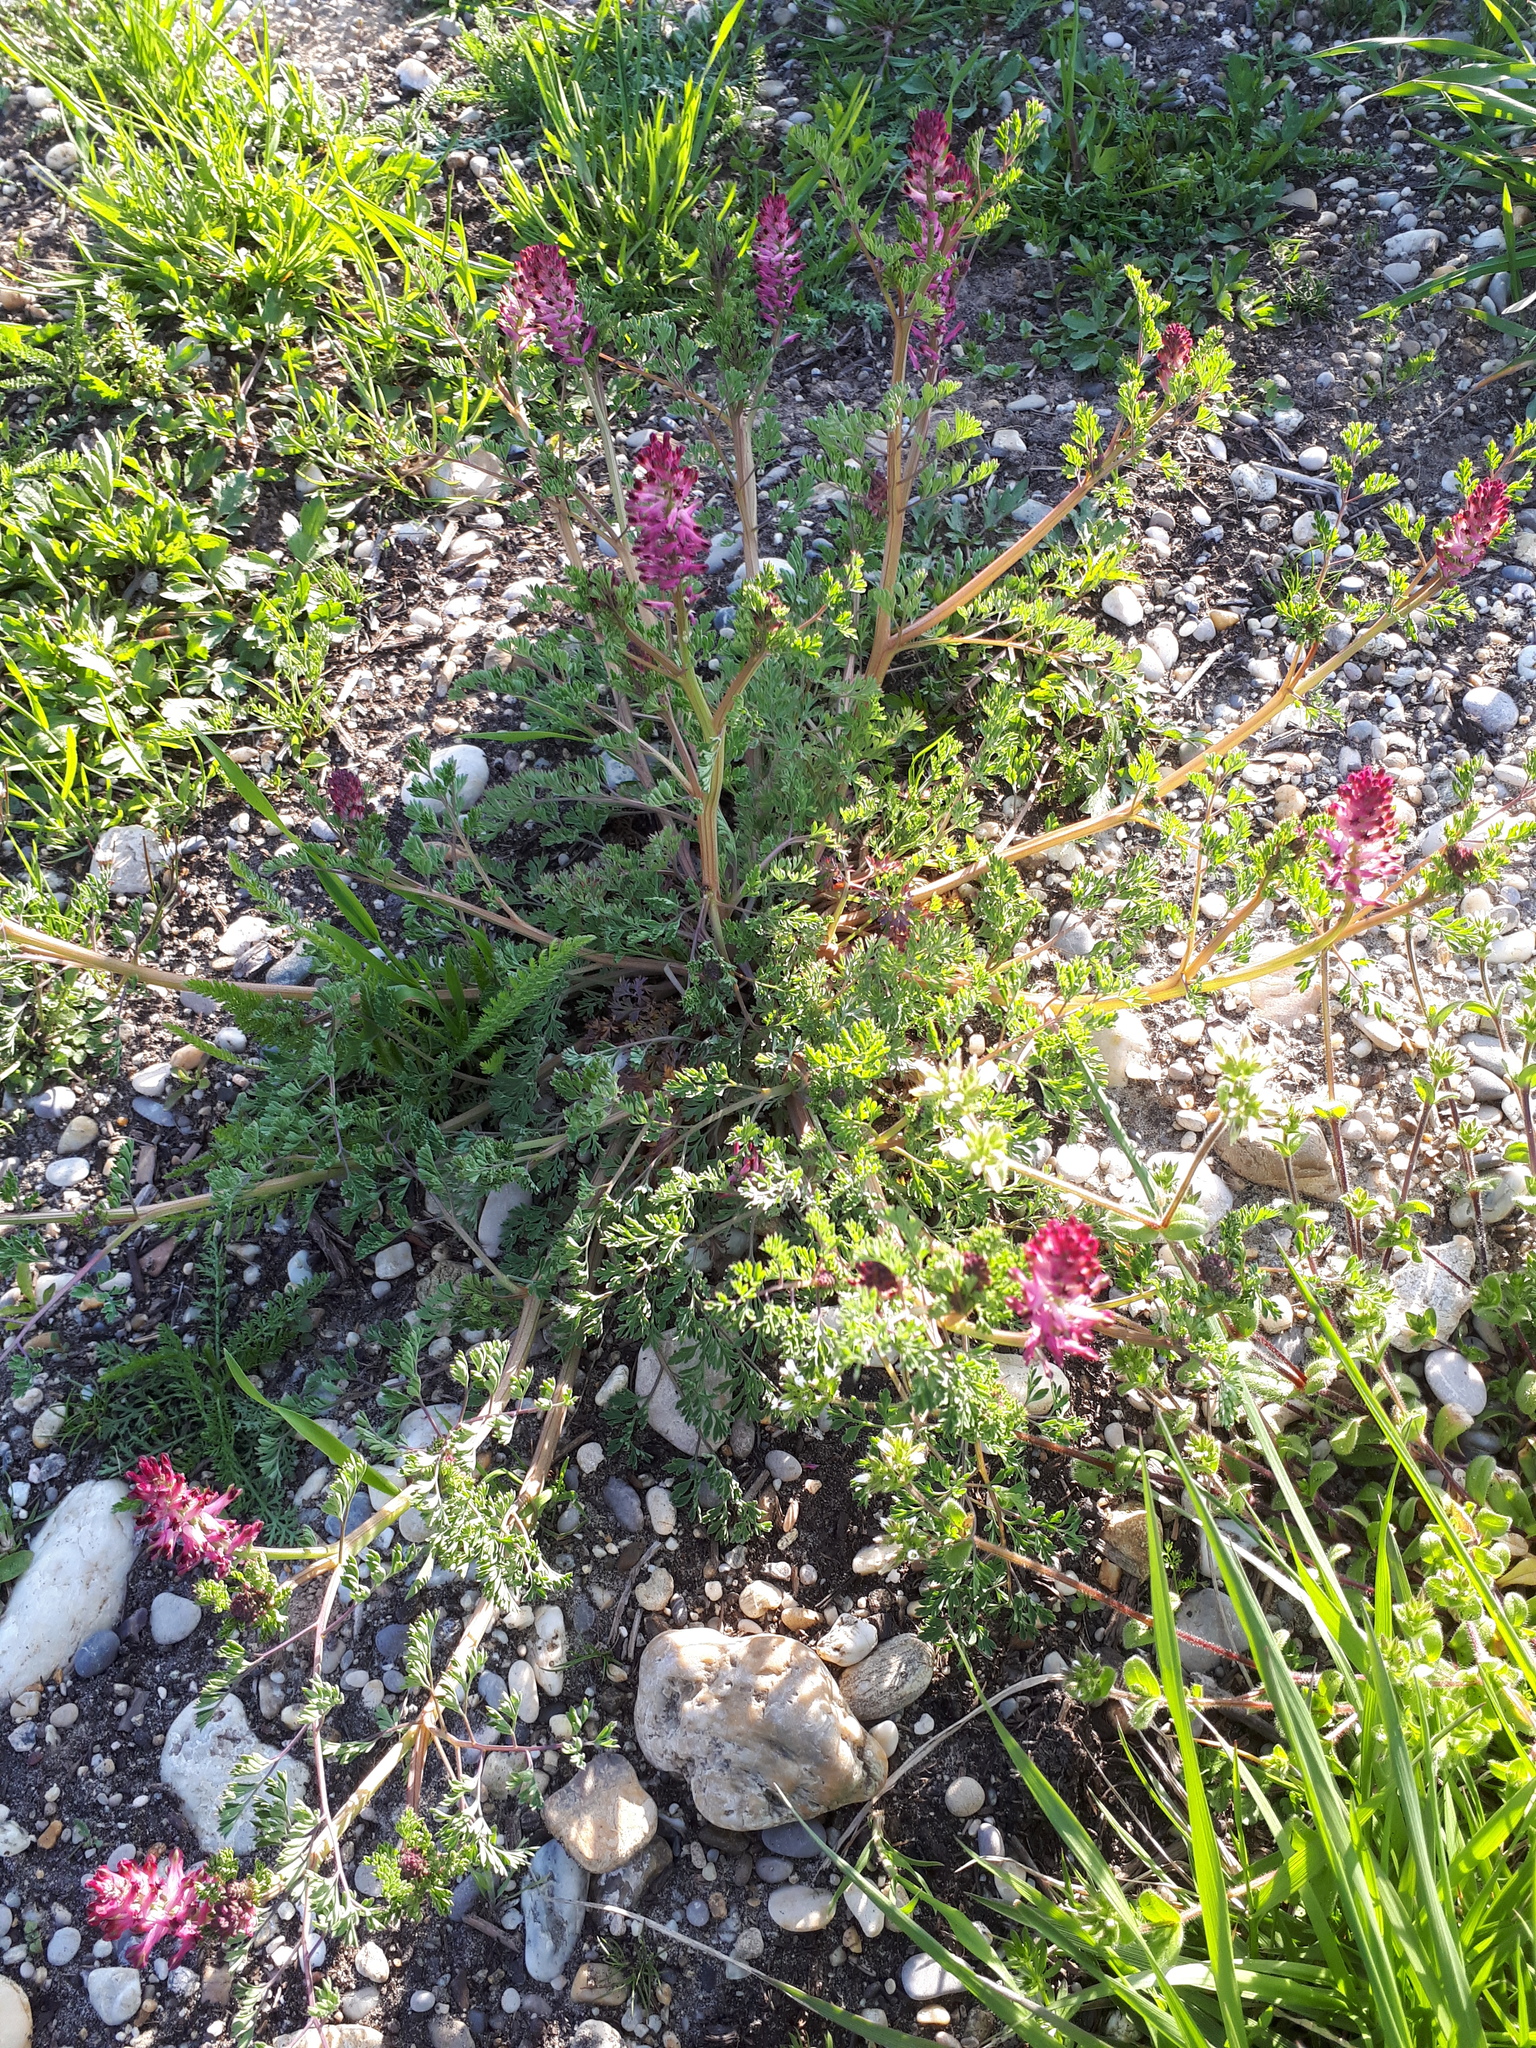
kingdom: Plantae
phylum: Tracheophyta
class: Magnoliopsida
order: Ranunculales
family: Papaveraceae
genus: Fumaria
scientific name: Fumaria officinalis
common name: Common fumitory
